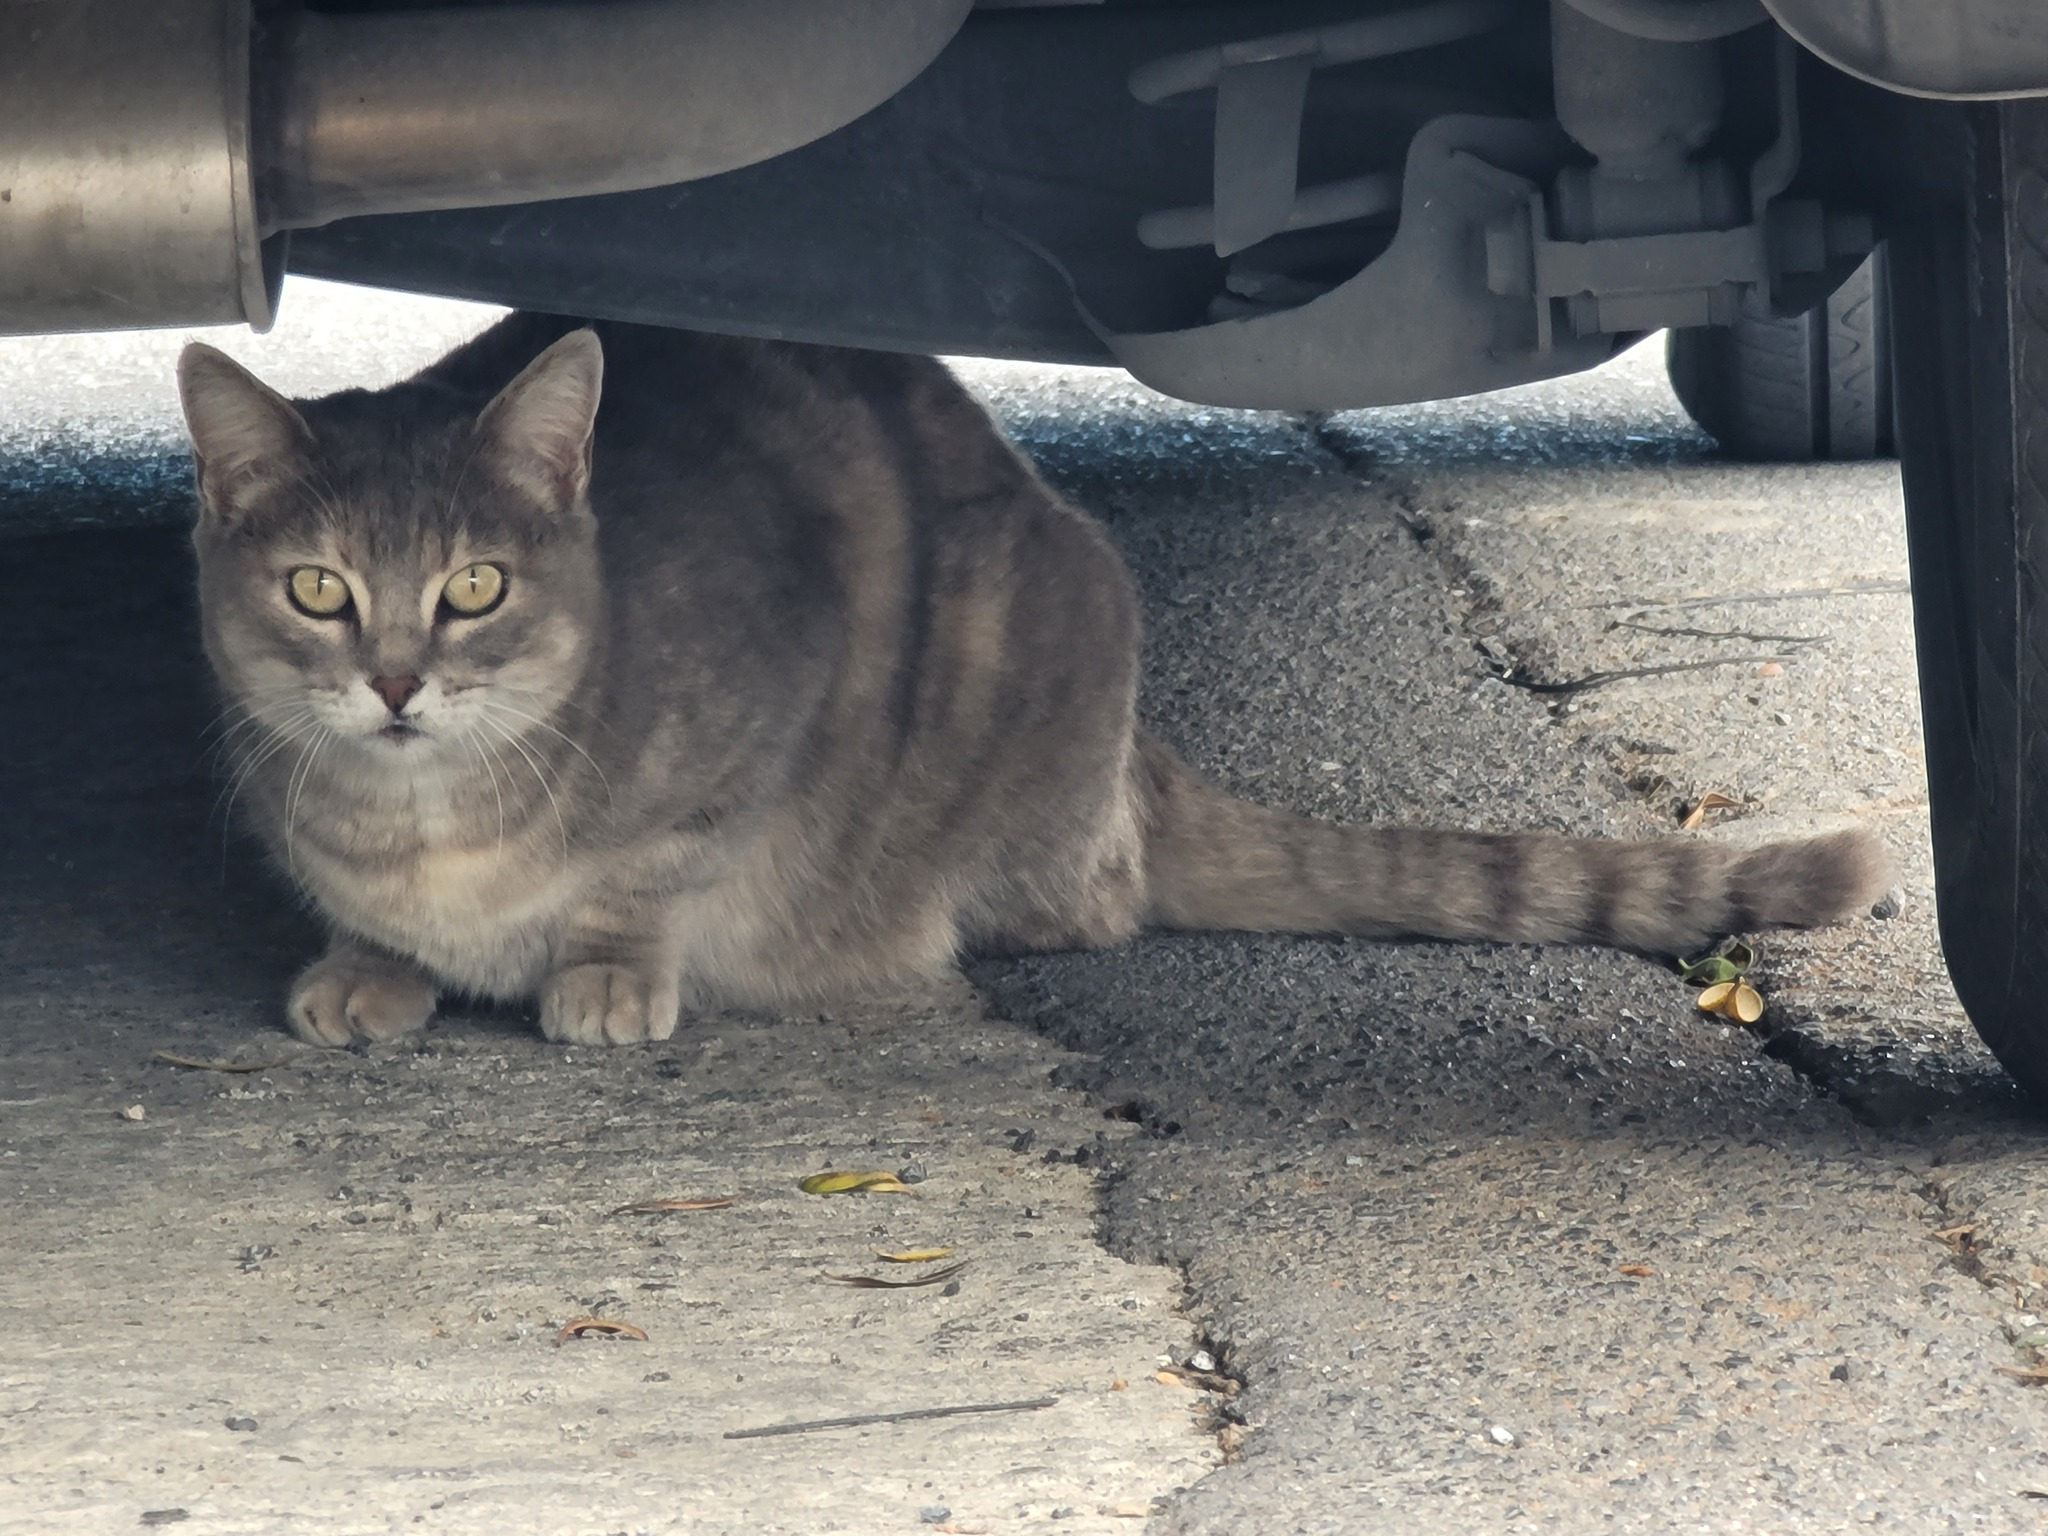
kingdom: Animalia
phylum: Chordata
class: Mammalia
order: Carnivora
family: Felidae
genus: Felis
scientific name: Felis catus
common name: Domestic cat
